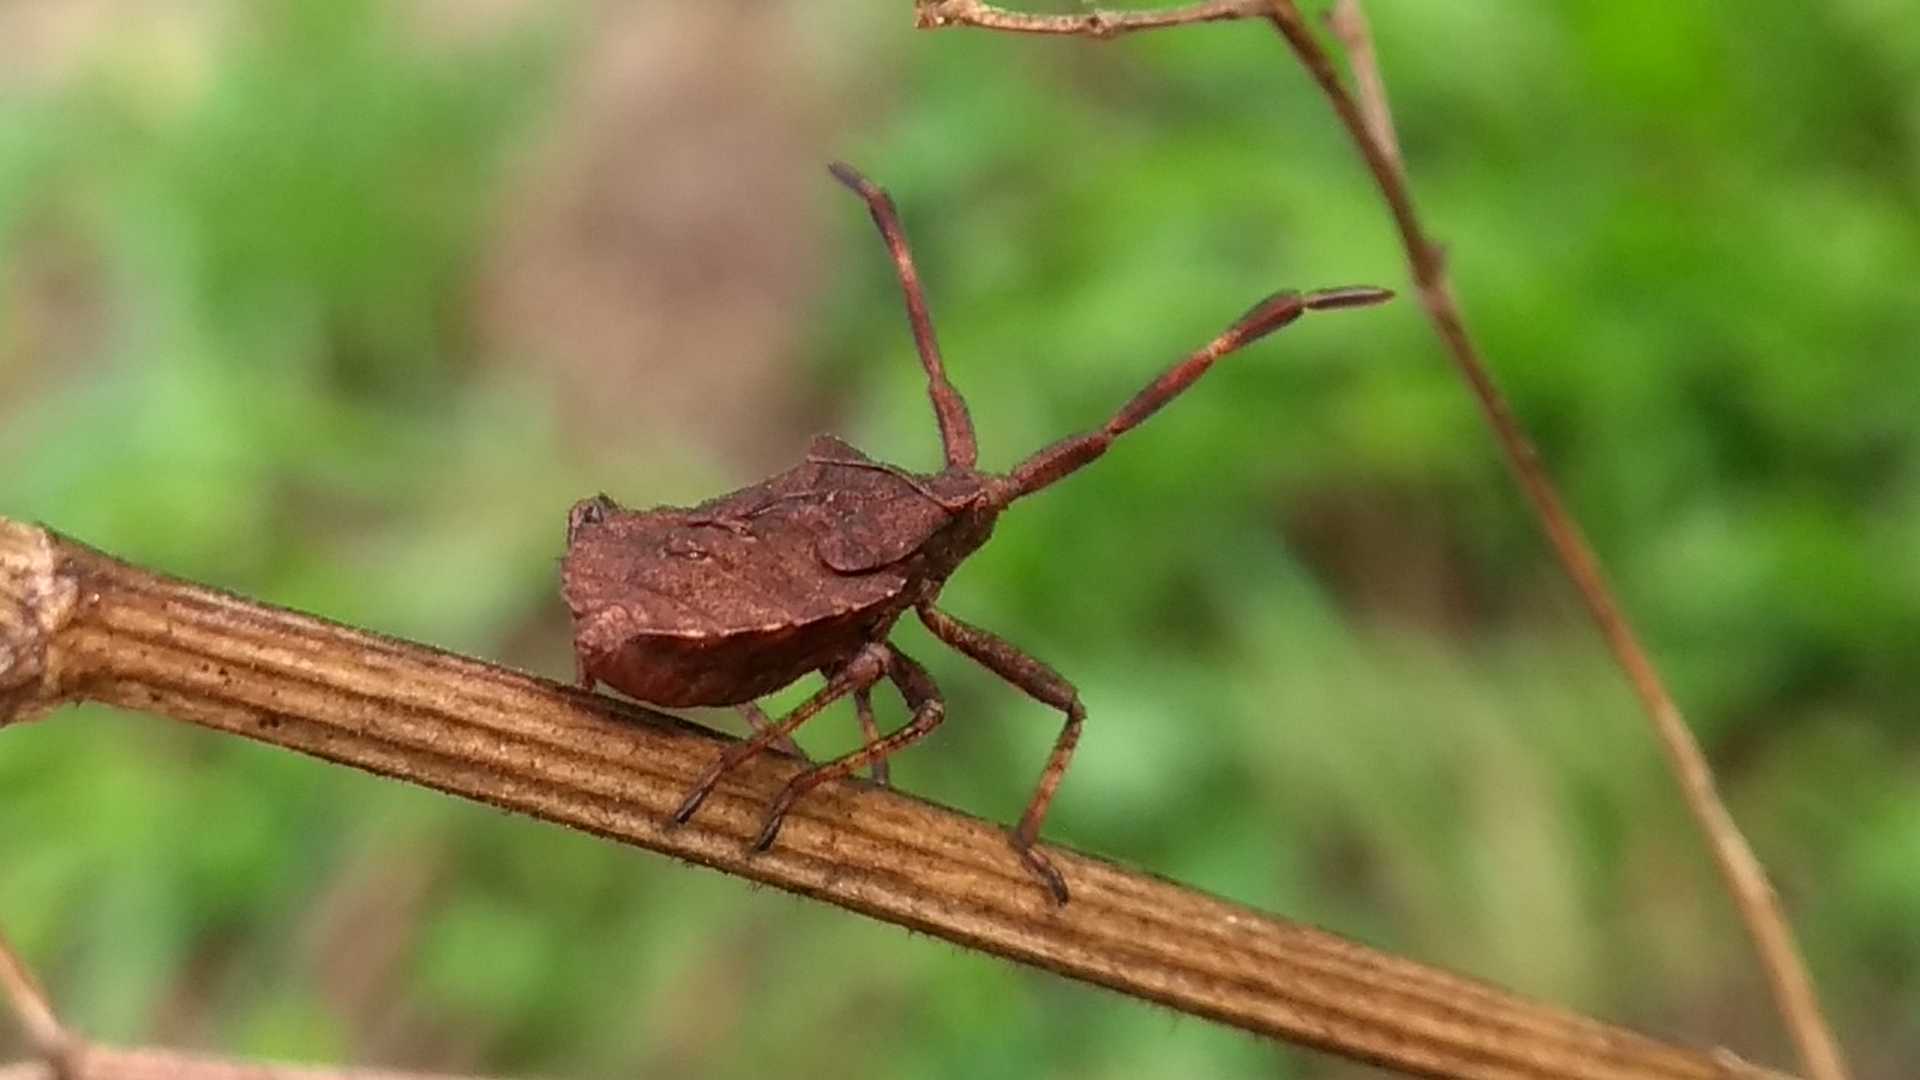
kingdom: Animalia
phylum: Arthropoda
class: Insecta
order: Hemiptera
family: Coreidae
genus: Coreus
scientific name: Coreus marginatus
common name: Dock bug
